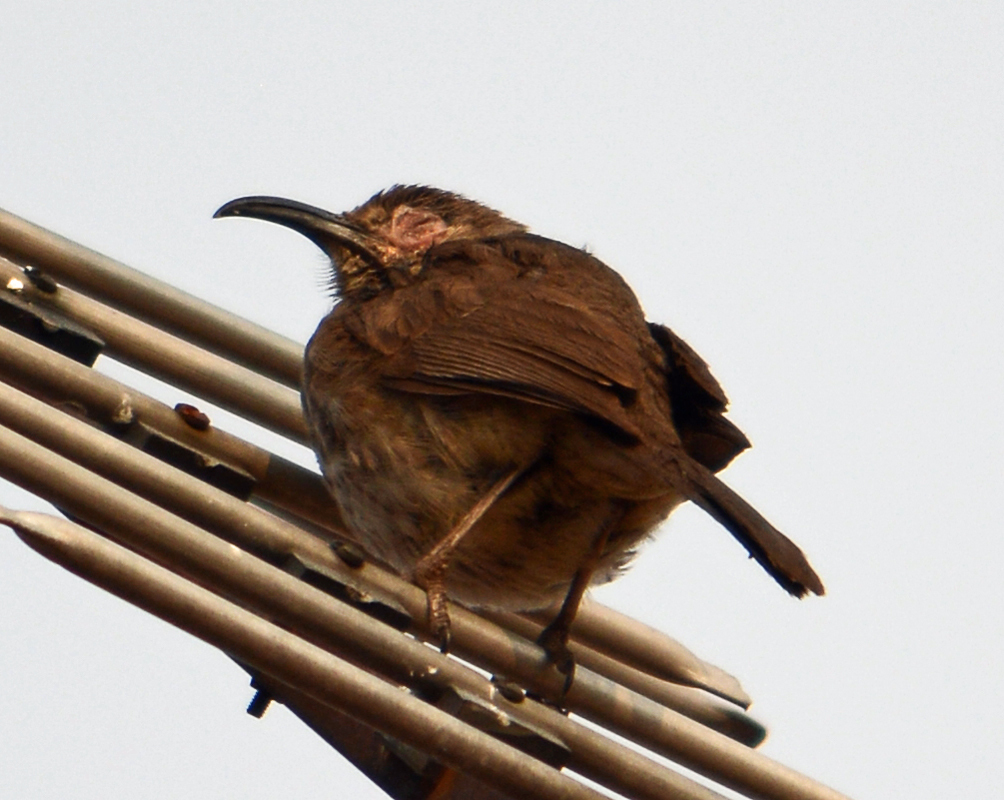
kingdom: Animalia
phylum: Chordata
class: Aves
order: Passeriformes
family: Mimidae
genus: Toxostoma
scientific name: Toxostoma curvirostre
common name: Curve-billed thrasher
